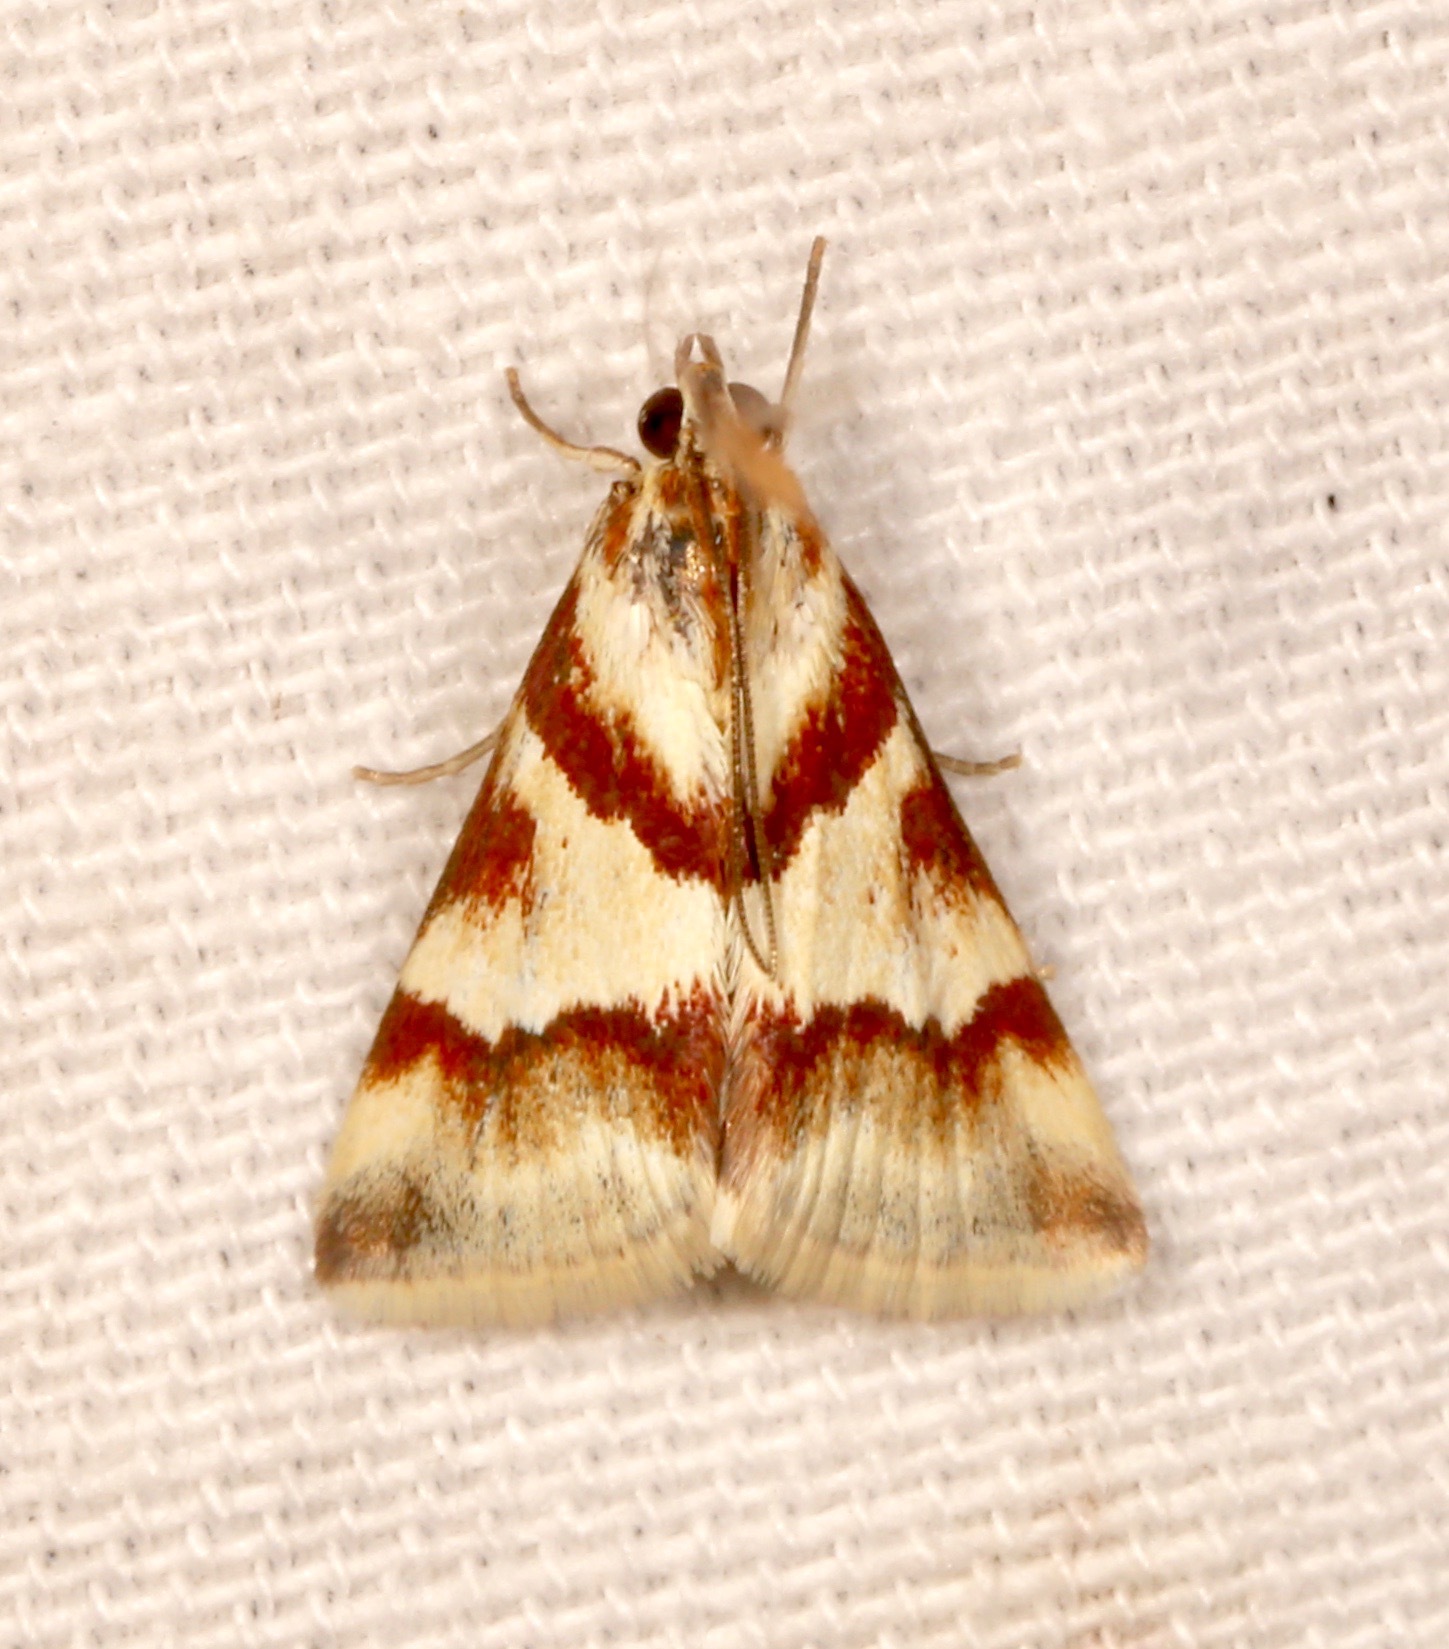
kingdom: Animalia
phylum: Arthropoda
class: Insecta
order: Lepidoptera
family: Crambidae
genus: Noctuelia
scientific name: Noctuelia Mimoschinia rufofascialis
